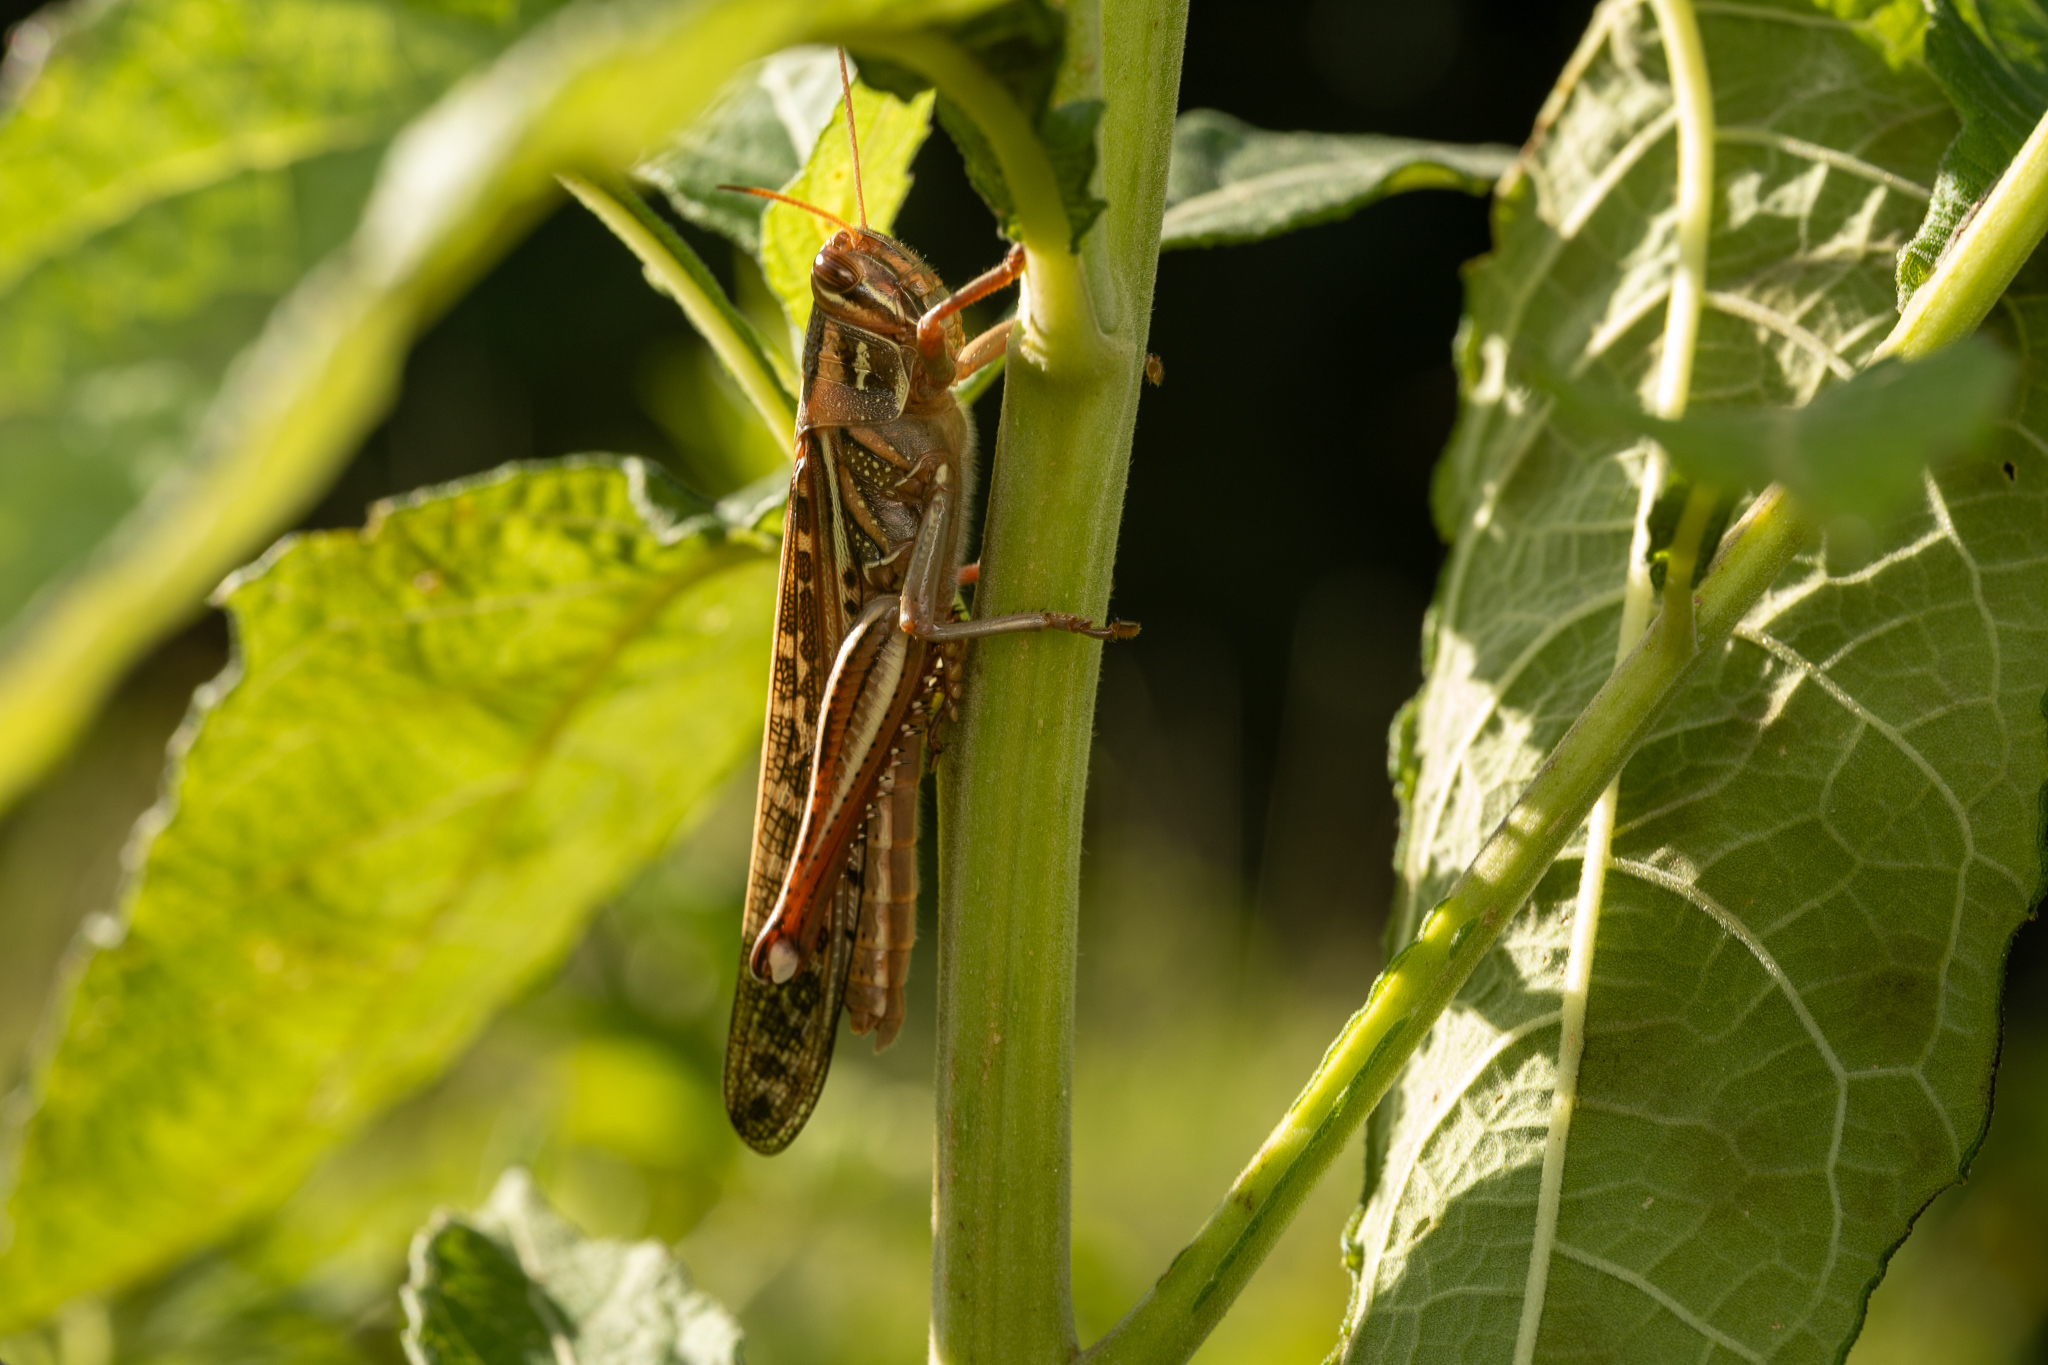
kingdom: Animalia
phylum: Arthropoda
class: Insecta
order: Orthoptera
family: Acrididae
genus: Schistocerca
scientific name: Schistocerca americana
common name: American bird locust
